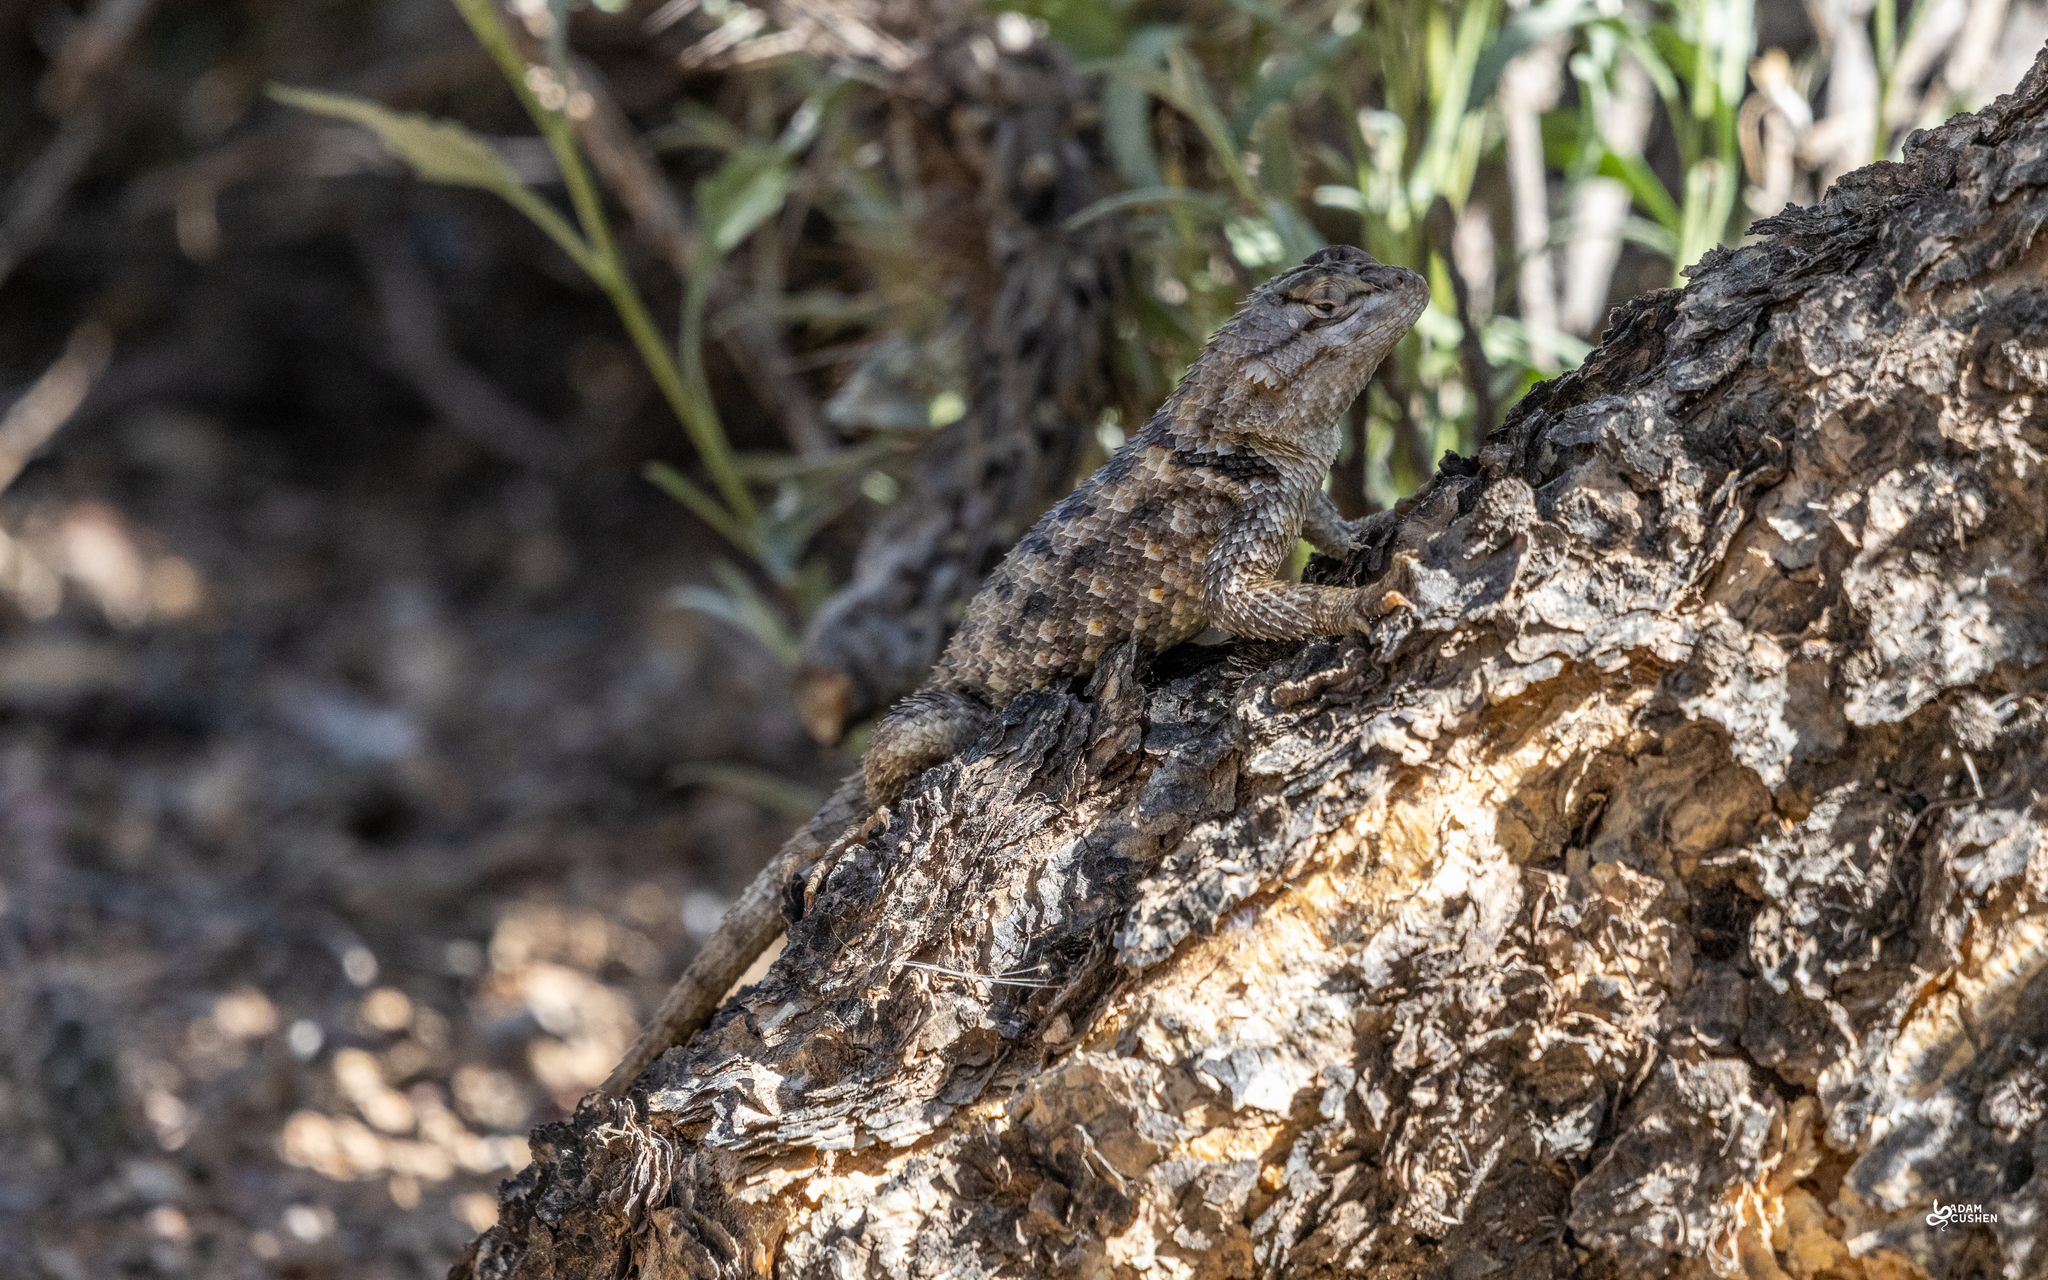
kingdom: Animalia
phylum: Chordata
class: Squamata
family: Phrynosomatidae
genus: Sceloporus
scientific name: Sceloporus magister
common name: Desert spiny lizard
